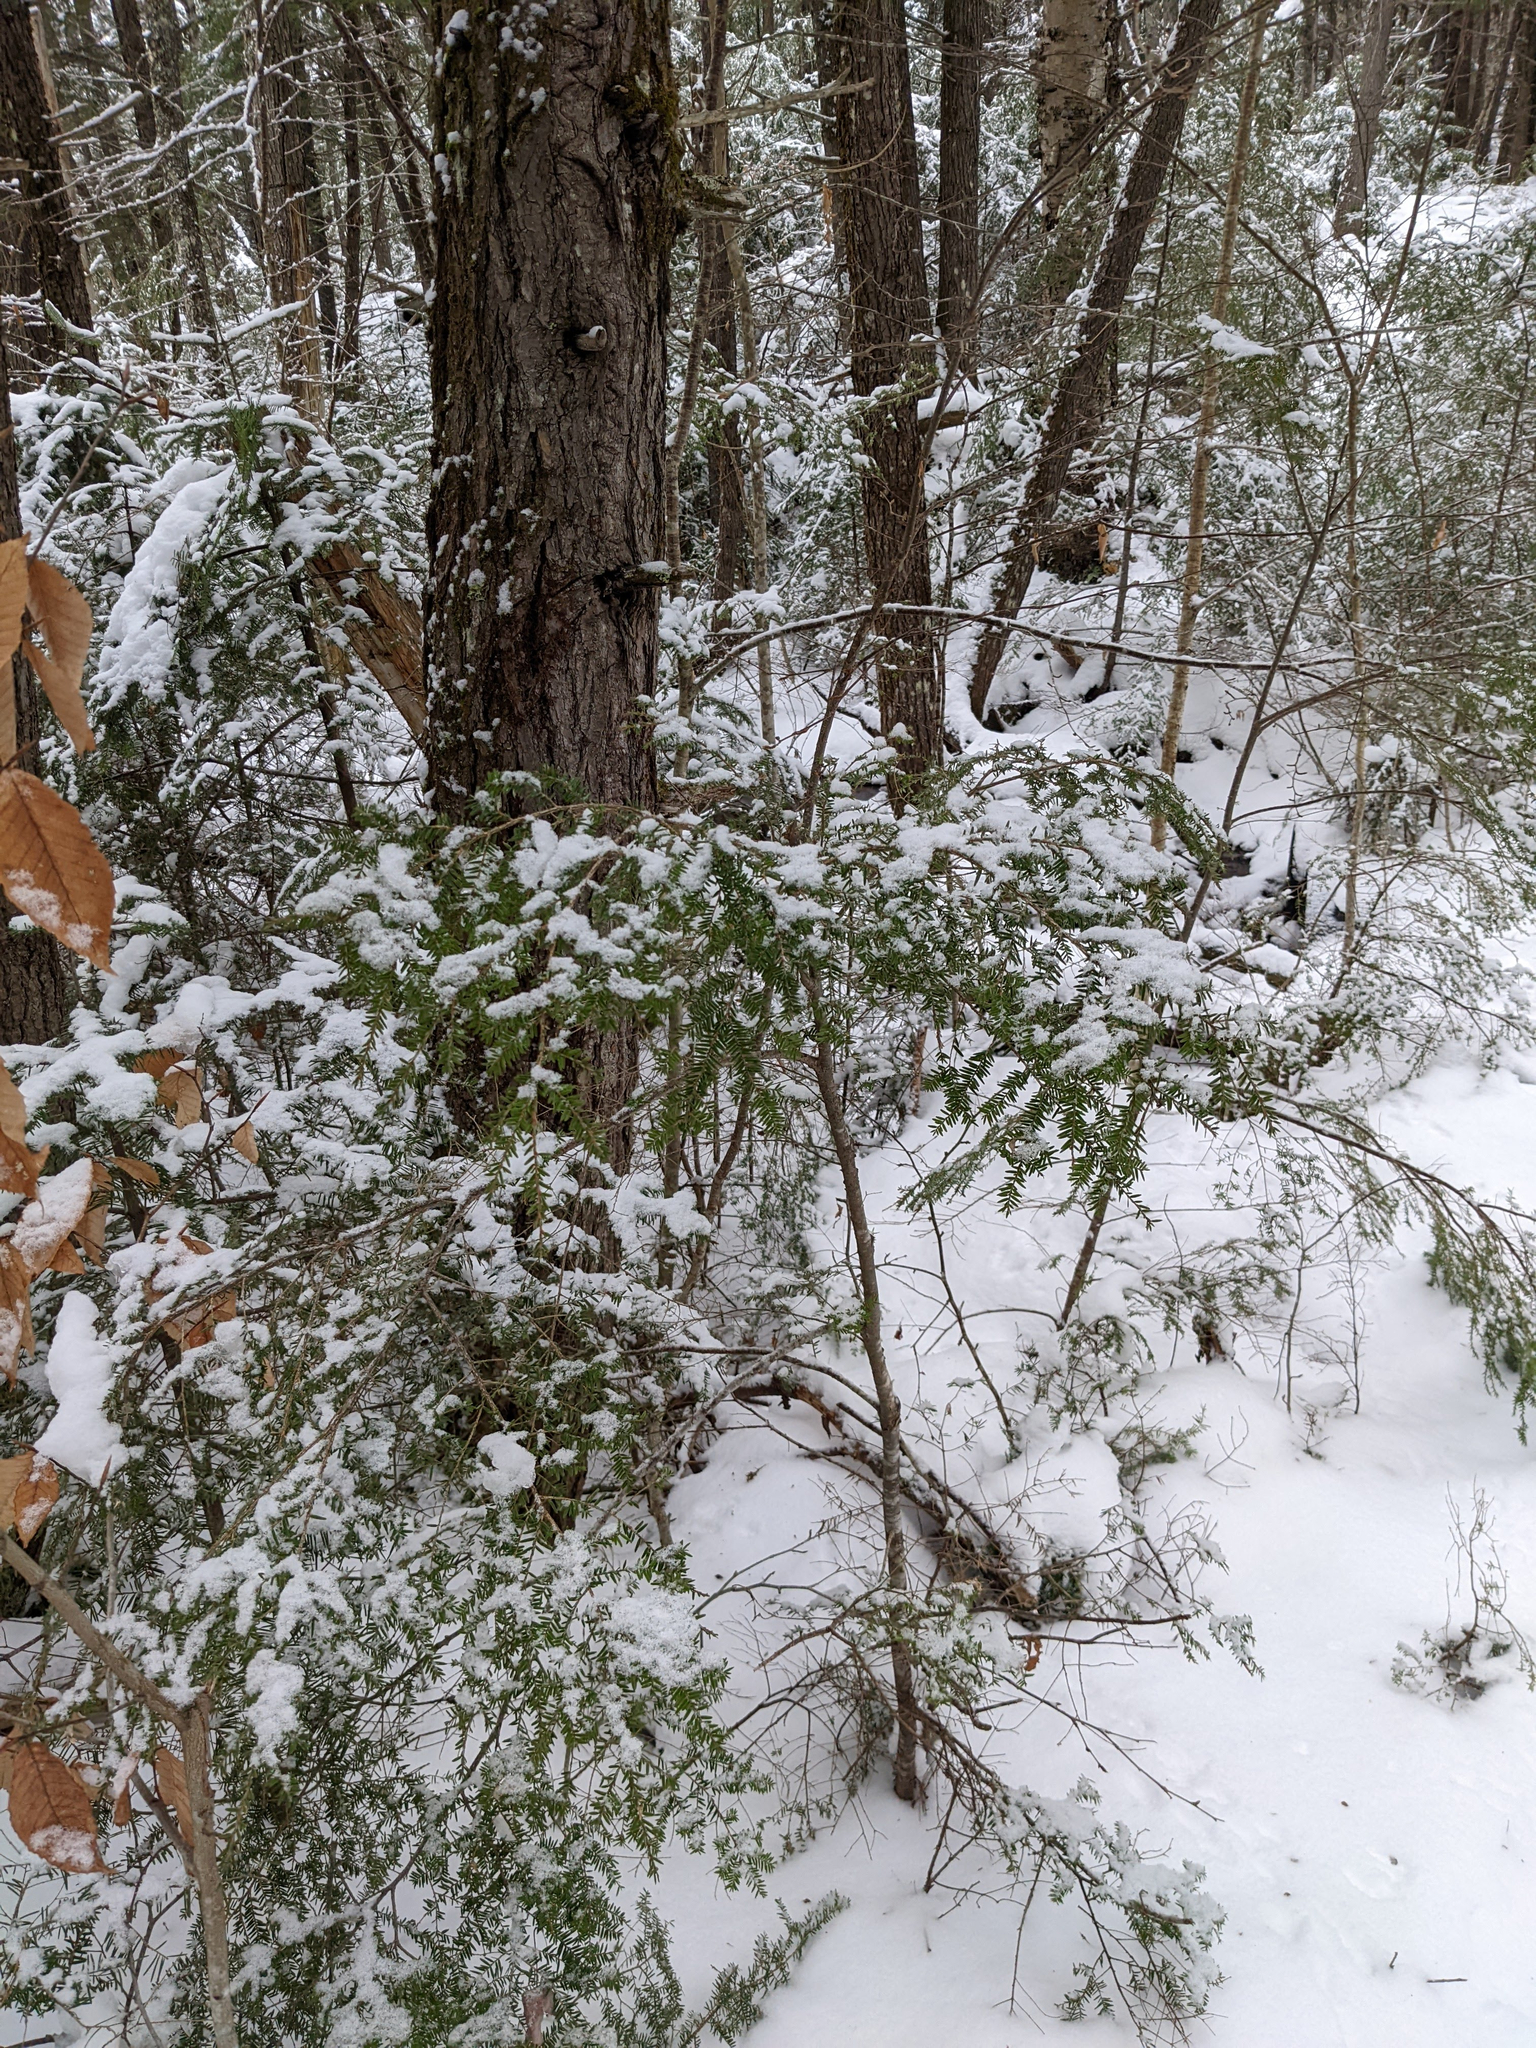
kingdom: Plantae
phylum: Tracheophyta
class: Pinopsida
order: Pinales
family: Pinaceae
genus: Tsuga
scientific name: Tsuga canadensis
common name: Eastern hemlock
